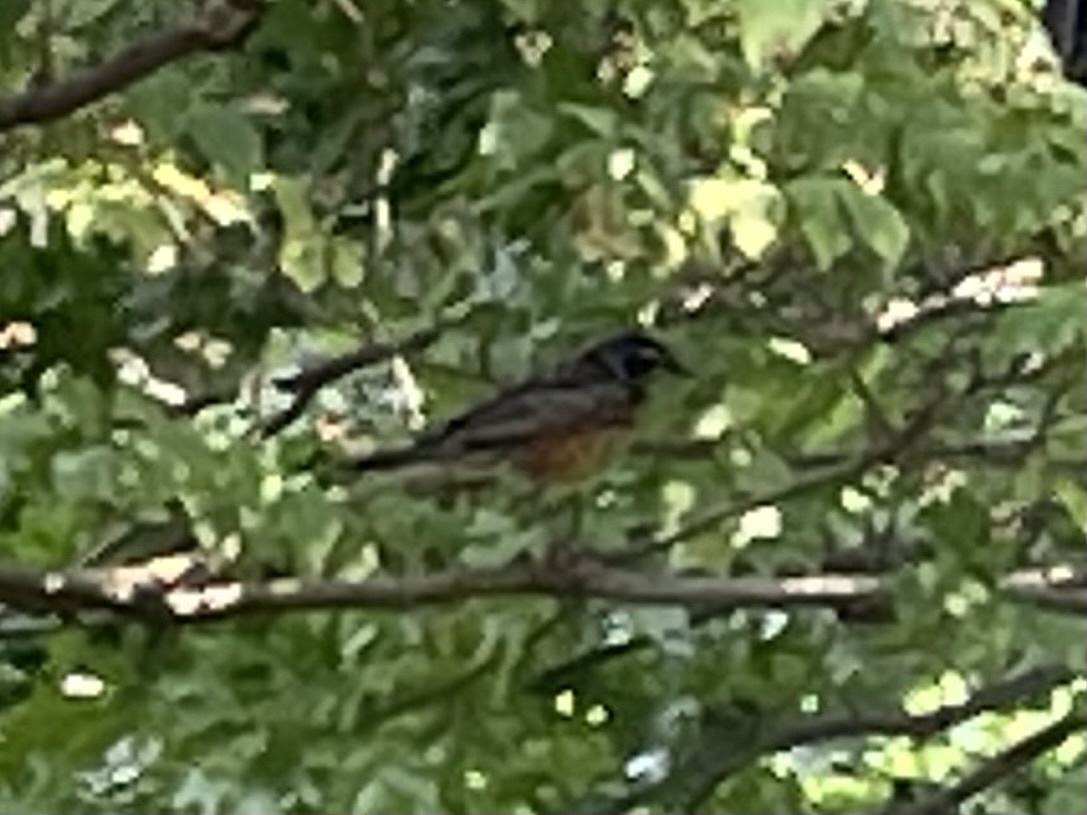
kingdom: Animalia
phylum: Chordata
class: Aves
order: Passeriformes
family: Turdidae
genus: Turdus
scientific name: Turdus migratorius
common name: American robin
